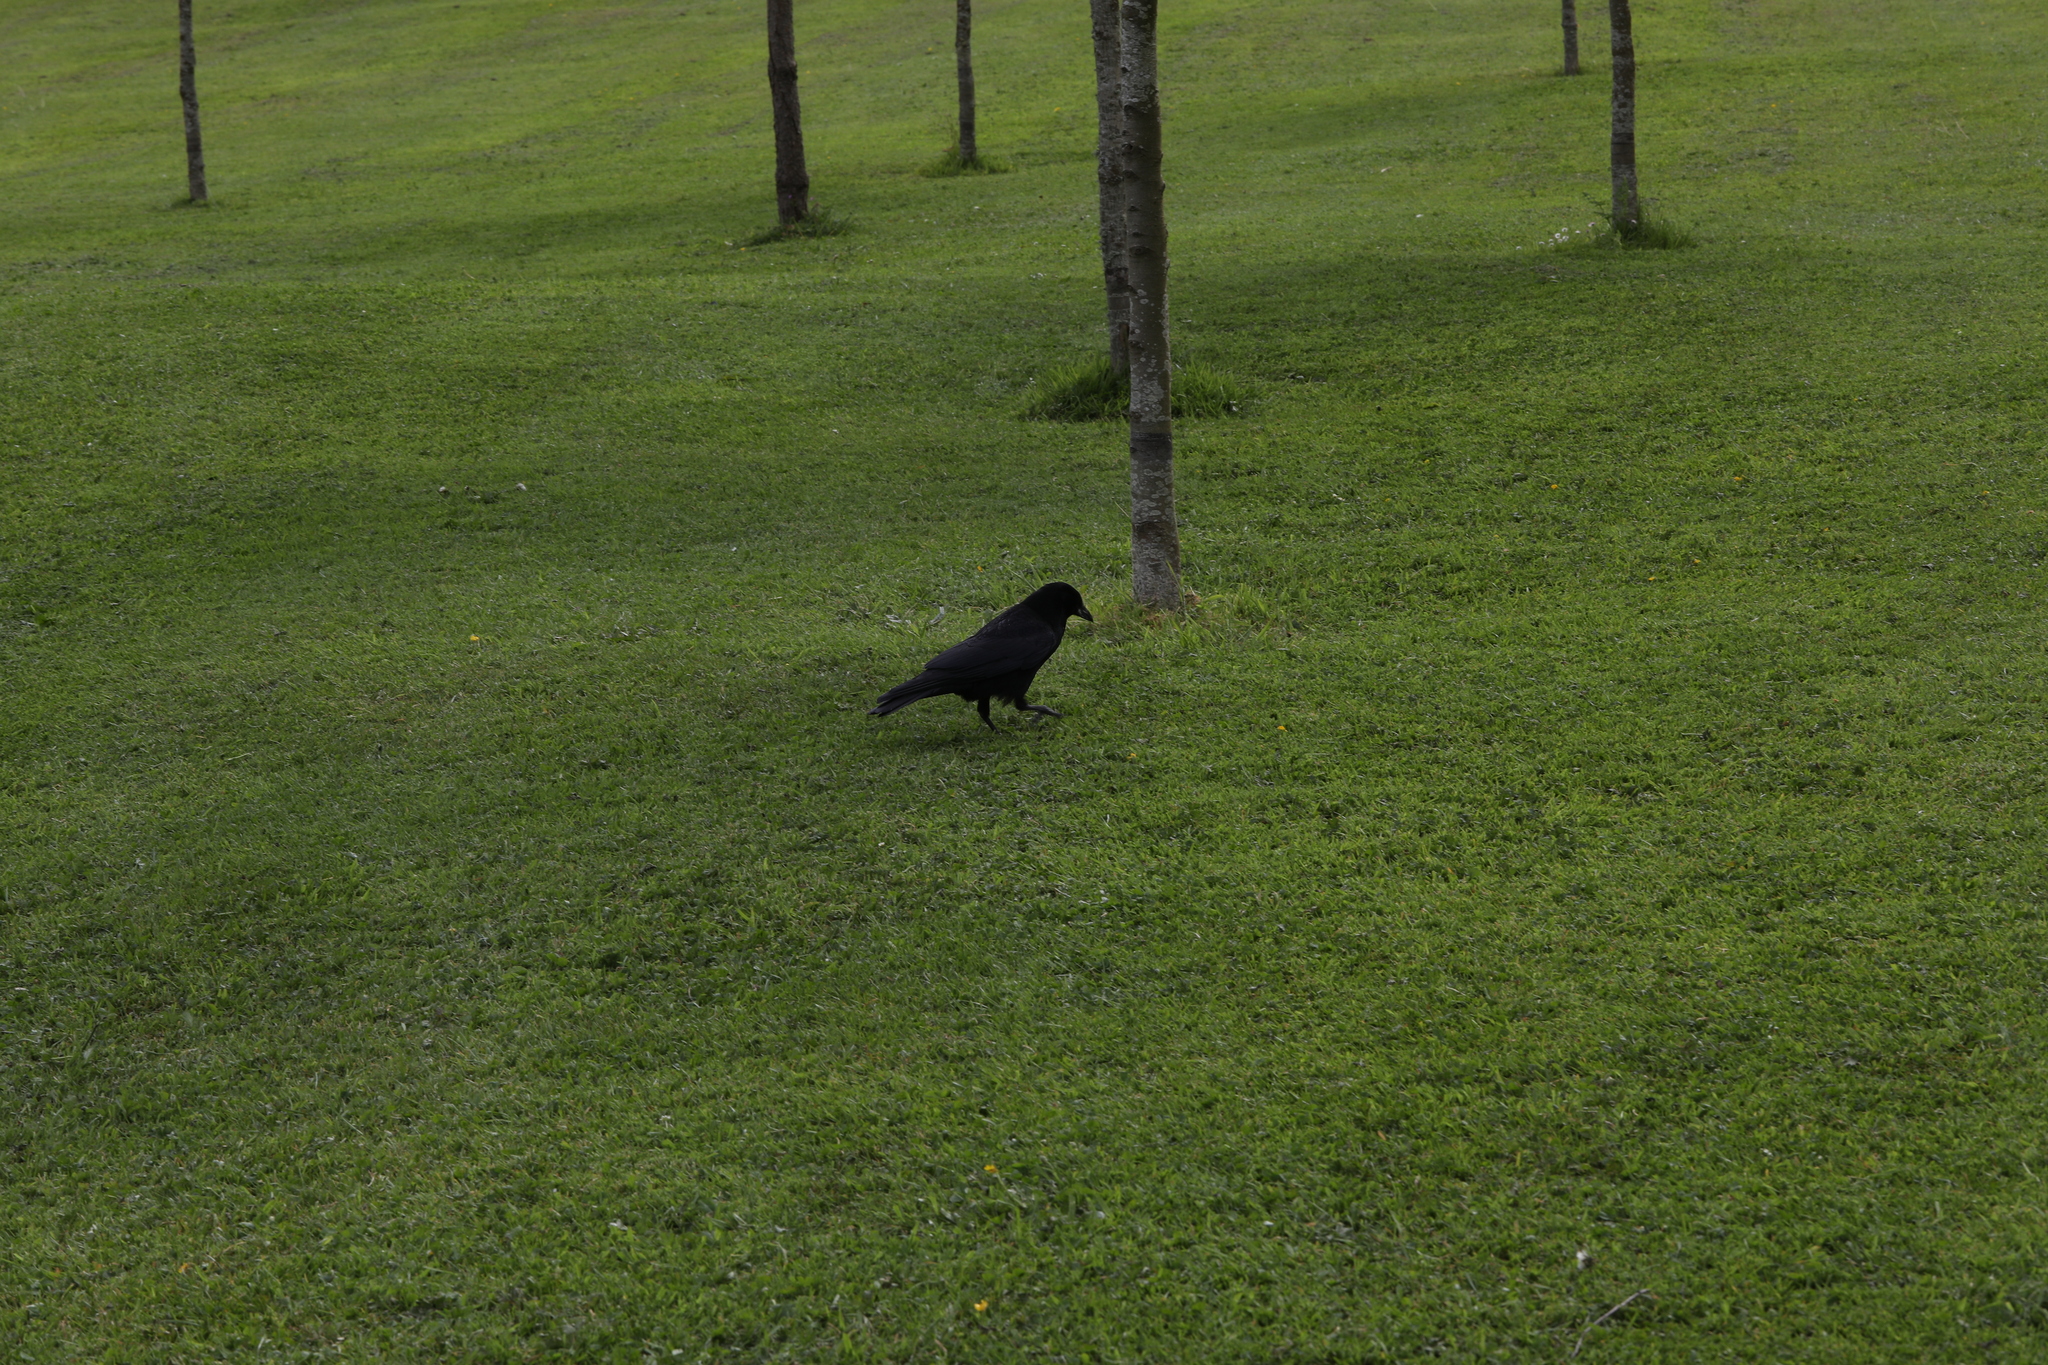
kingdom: Animalia
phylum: Chordata
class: Aves
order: Passeriformes
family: Corvidae
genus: Corvus
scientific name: Corvus corone
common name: Carrion crow
